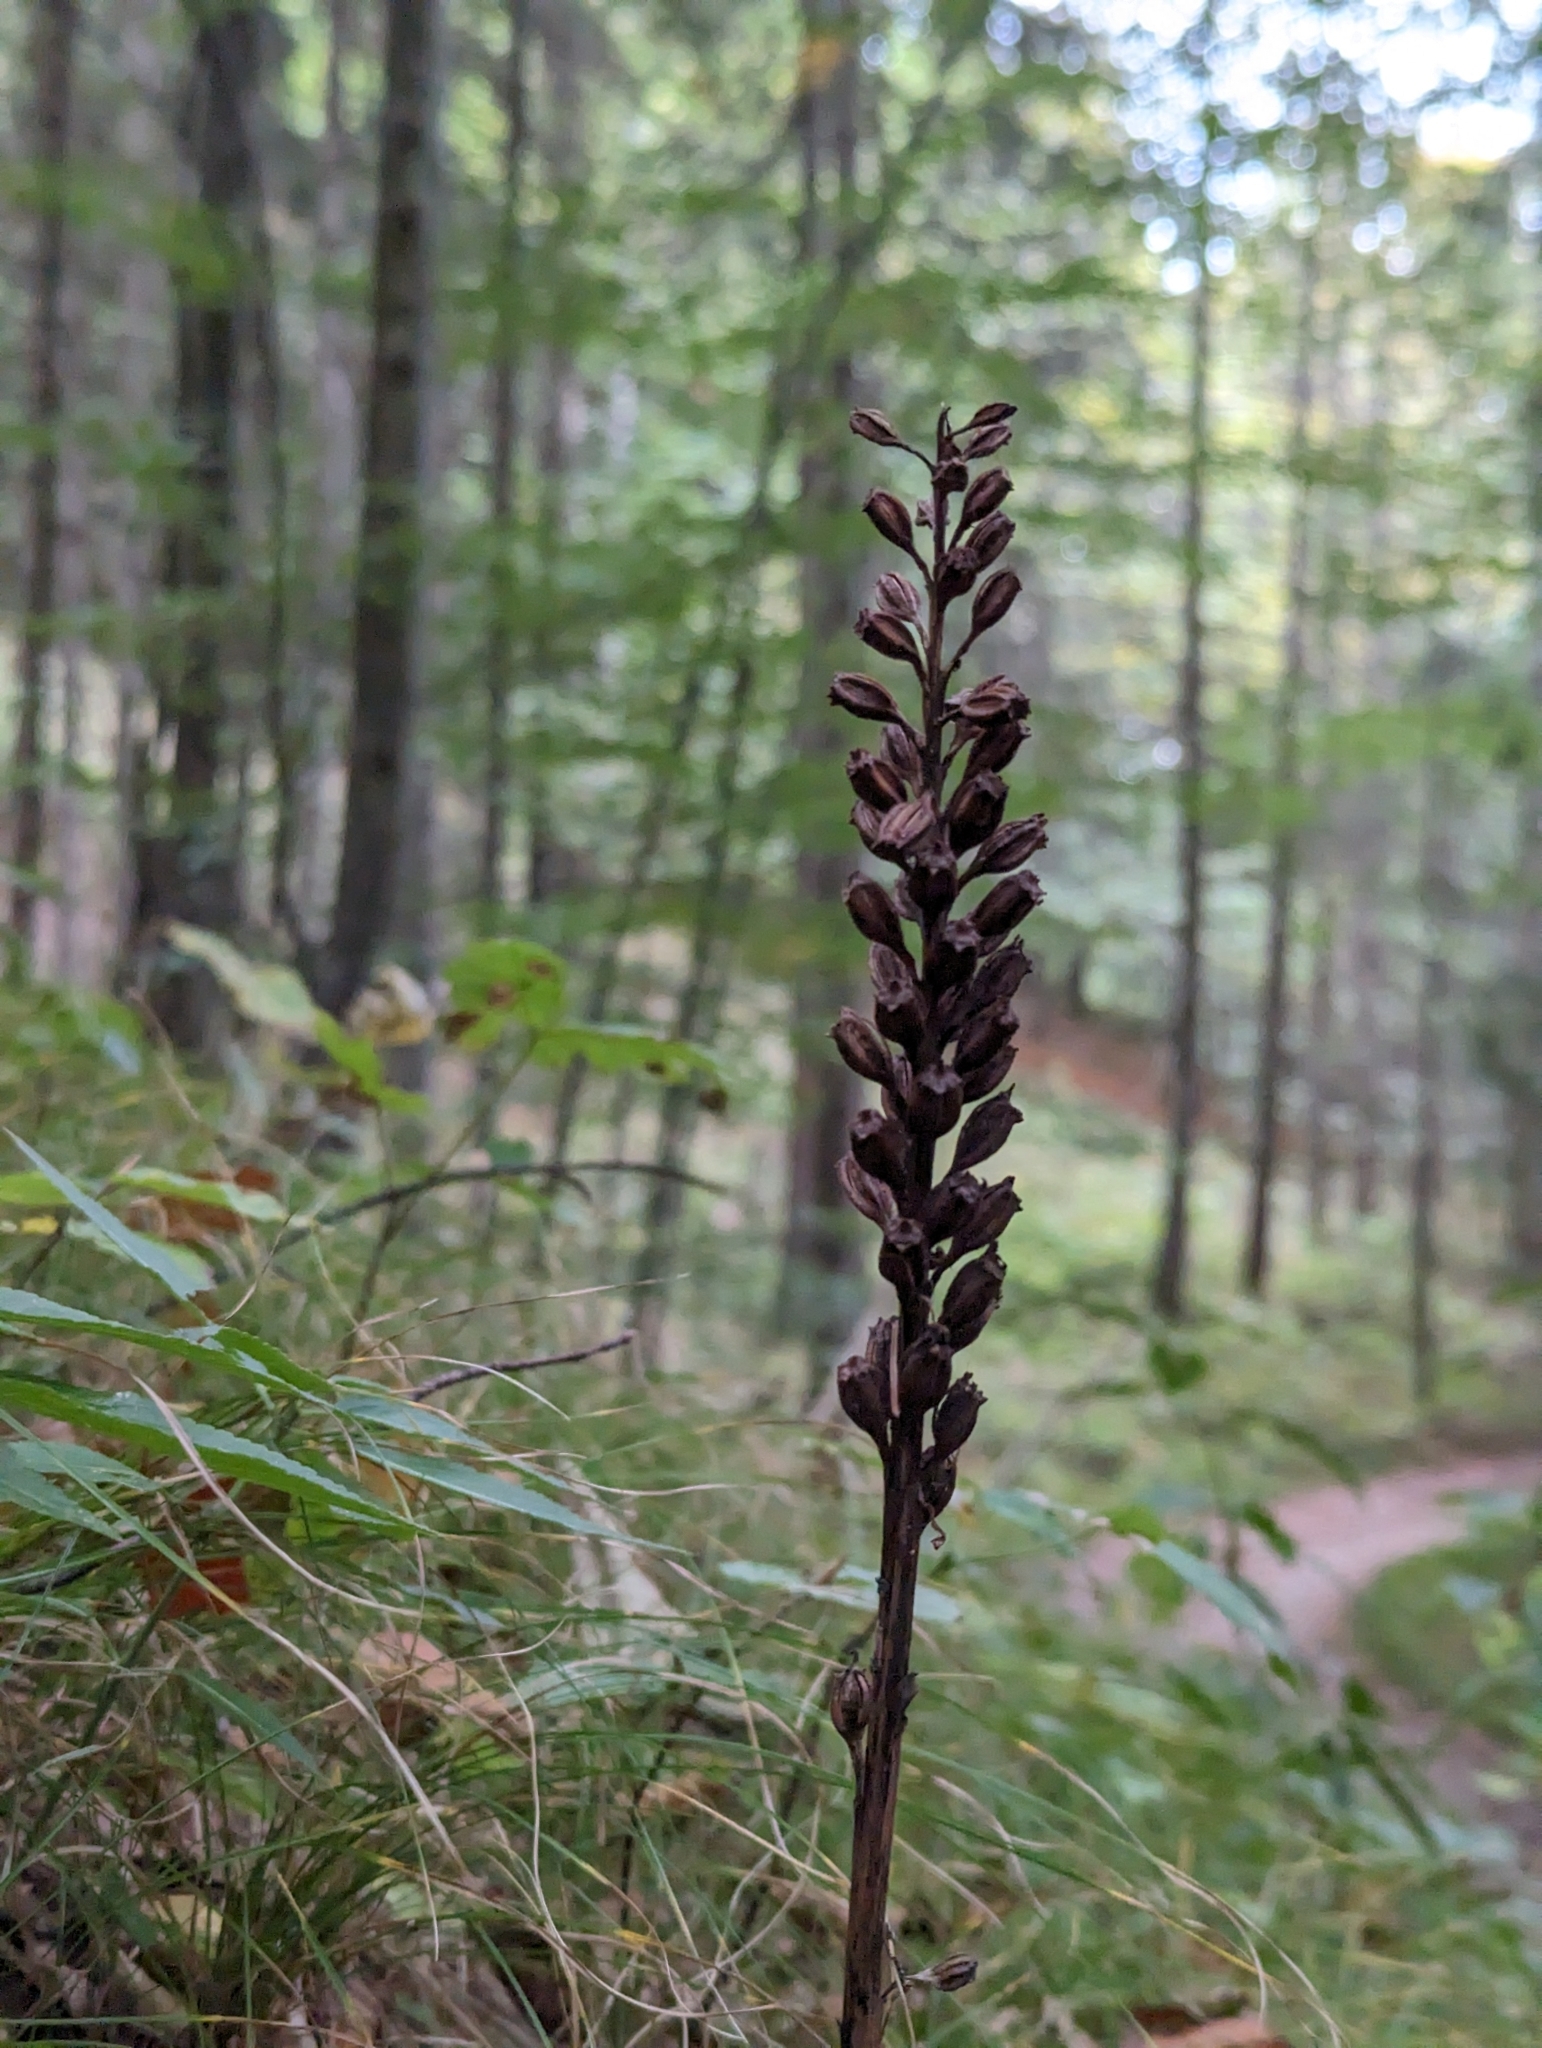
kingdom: Plantae
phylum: Tracheophyta
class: Liliopsida
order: Asparagales
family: Orchidaceae
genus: Neottia
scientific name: Neottia nidus-avis
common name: Bird's-nest orchid
